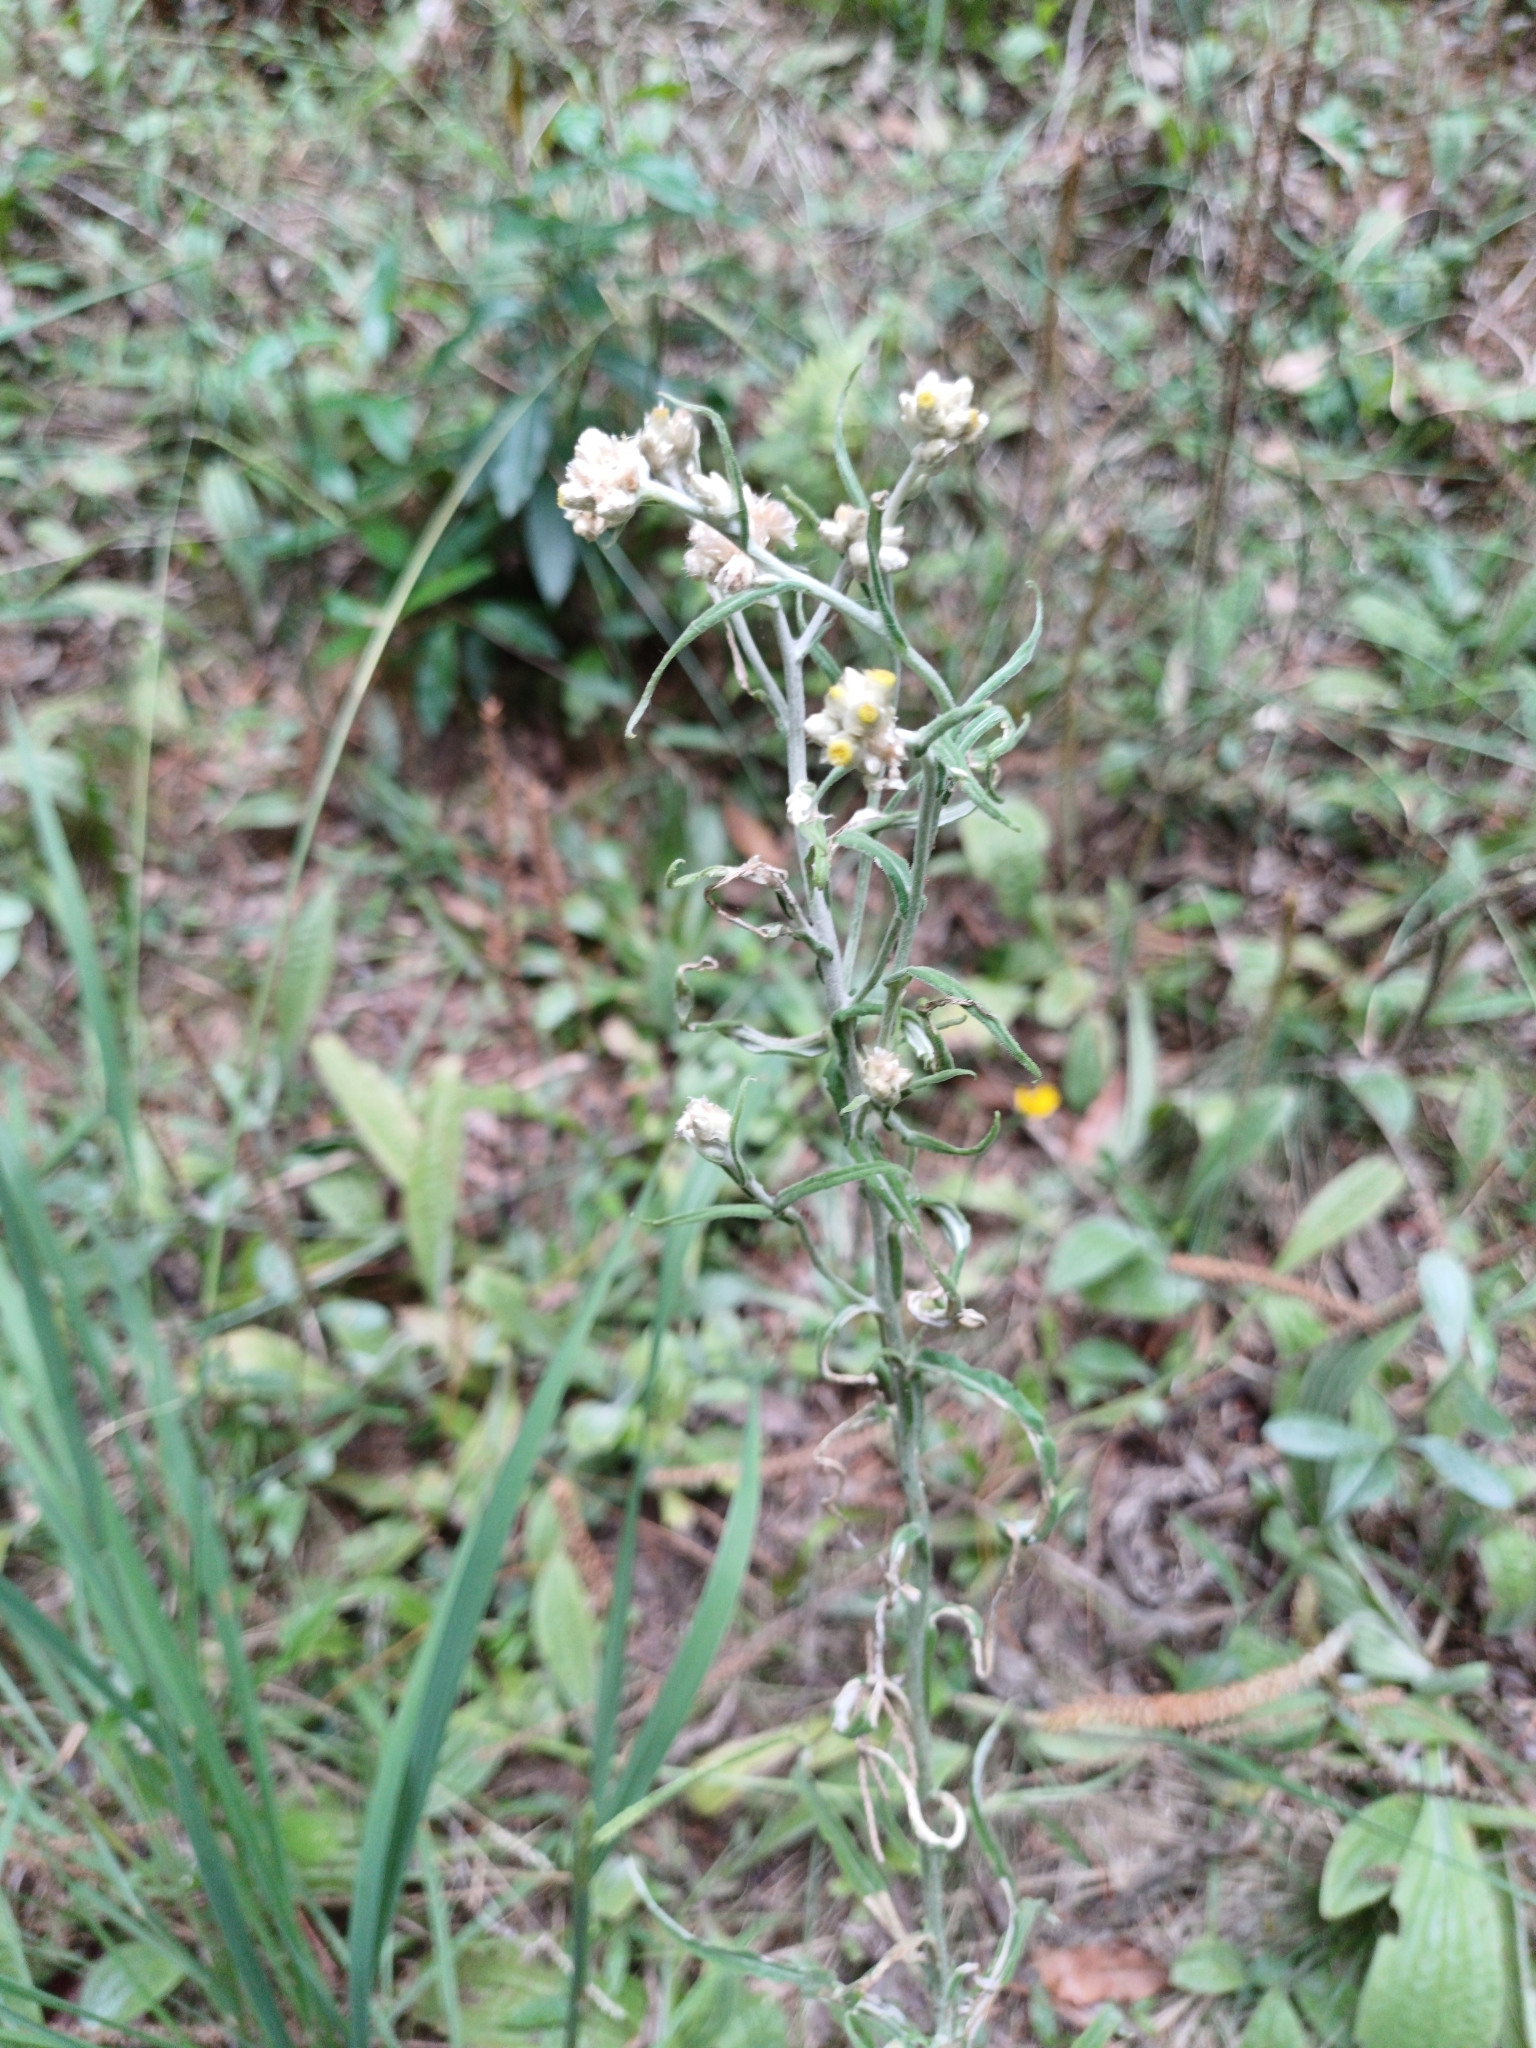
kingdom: Plantae
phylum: Tracheophyta
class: Magnoliopsida
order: Asterales
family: Asteraceae
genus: Pseudognaphalium
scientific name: Pseudognaphalium gaudichaudianum
